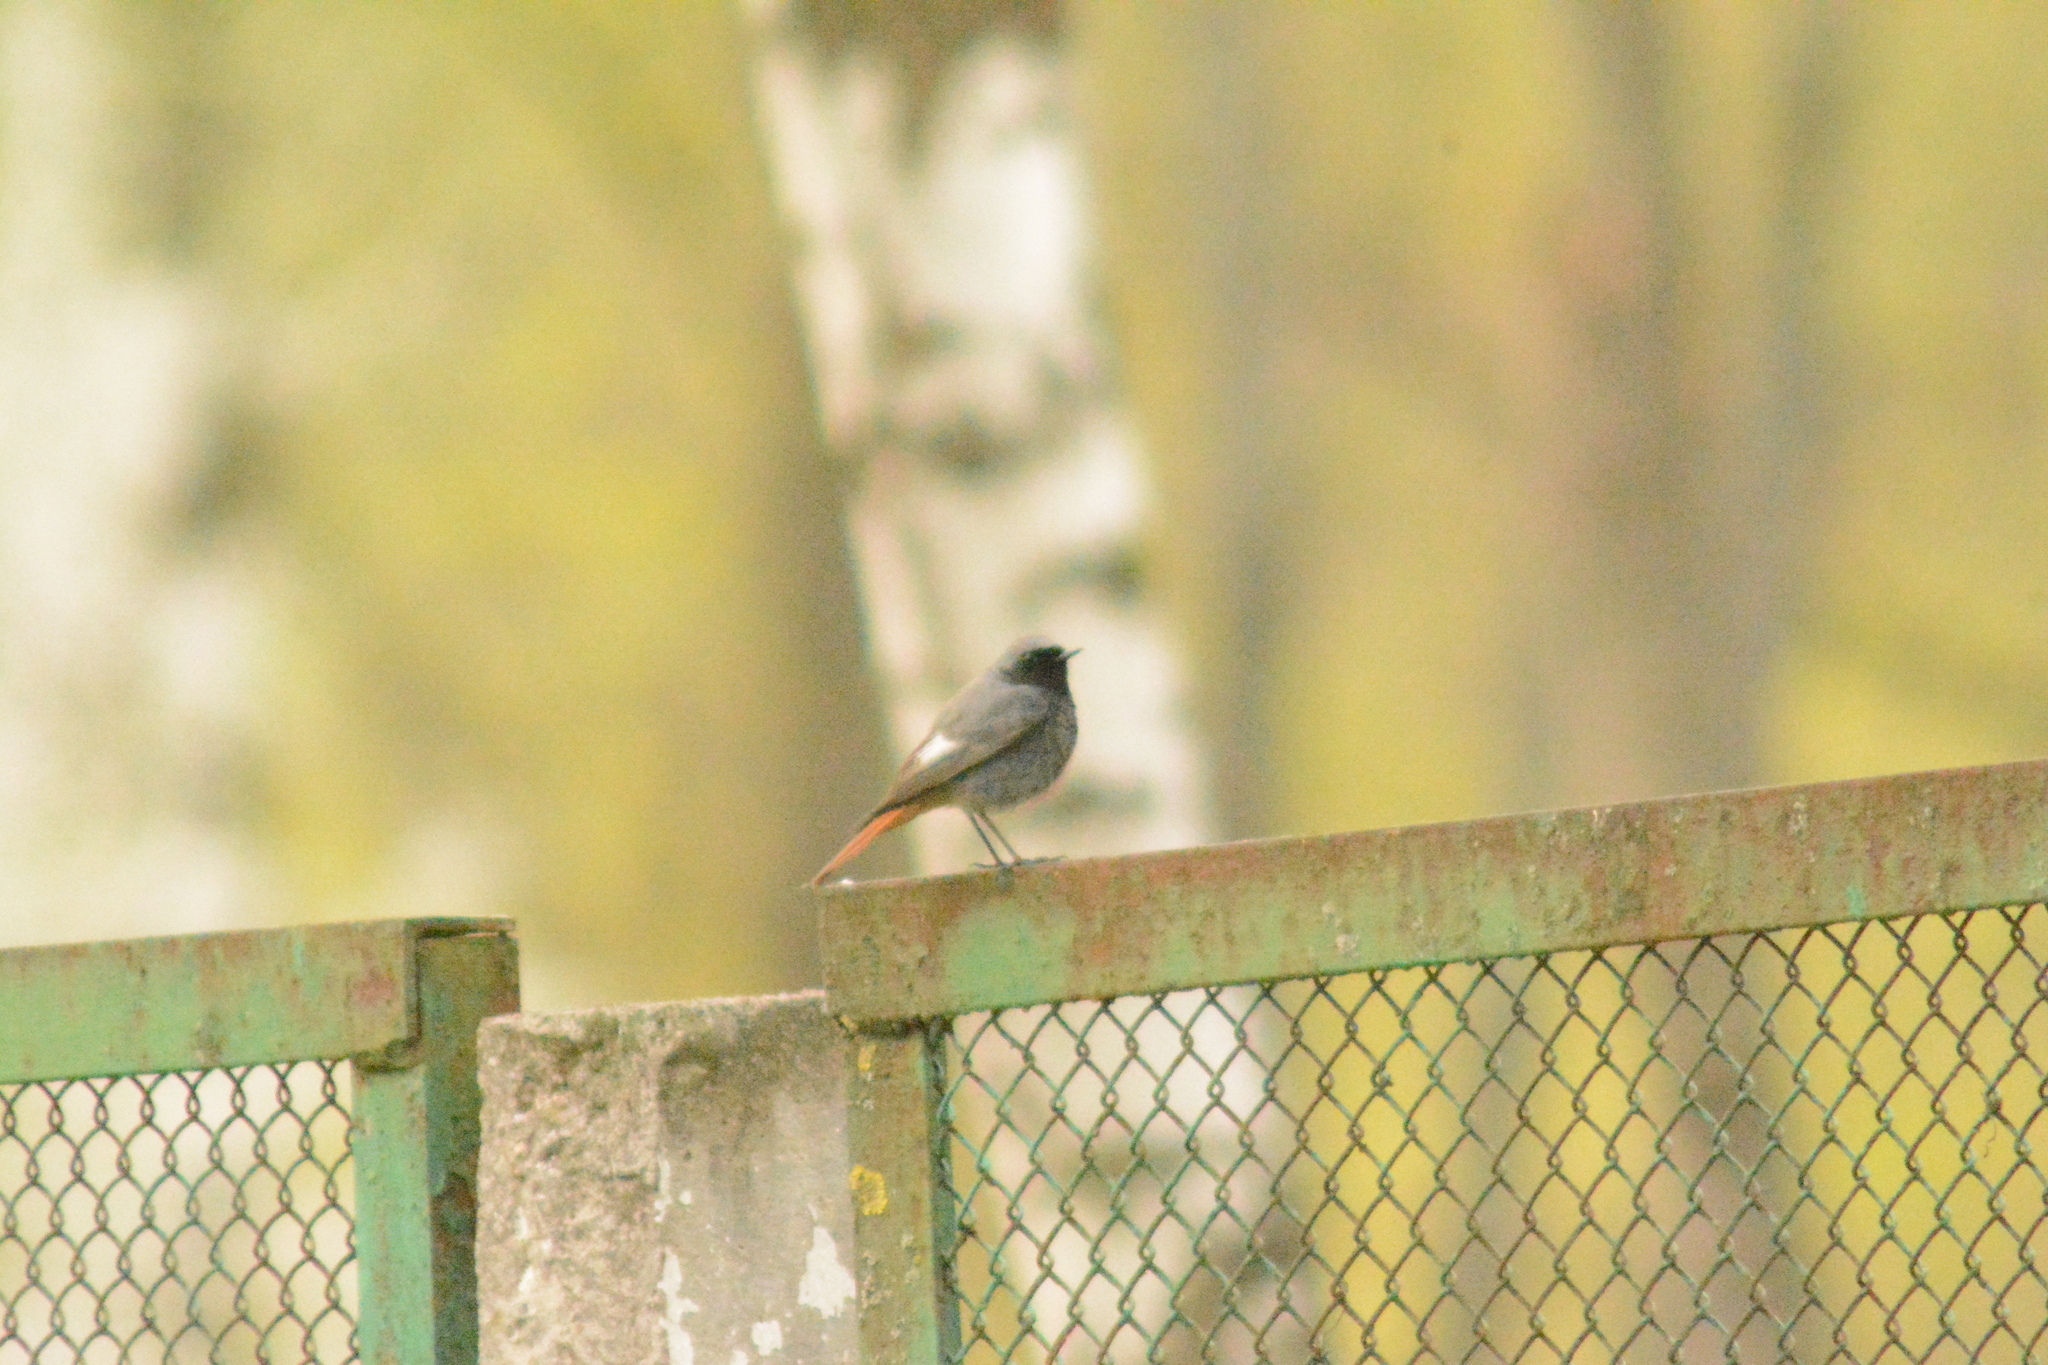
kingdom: Animalia
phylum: Chordata
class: Aves
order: Passeriformes
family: Muscicapidae
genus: Phoenicurus
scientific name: Phoenicurus ochruros
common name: Black redstart
